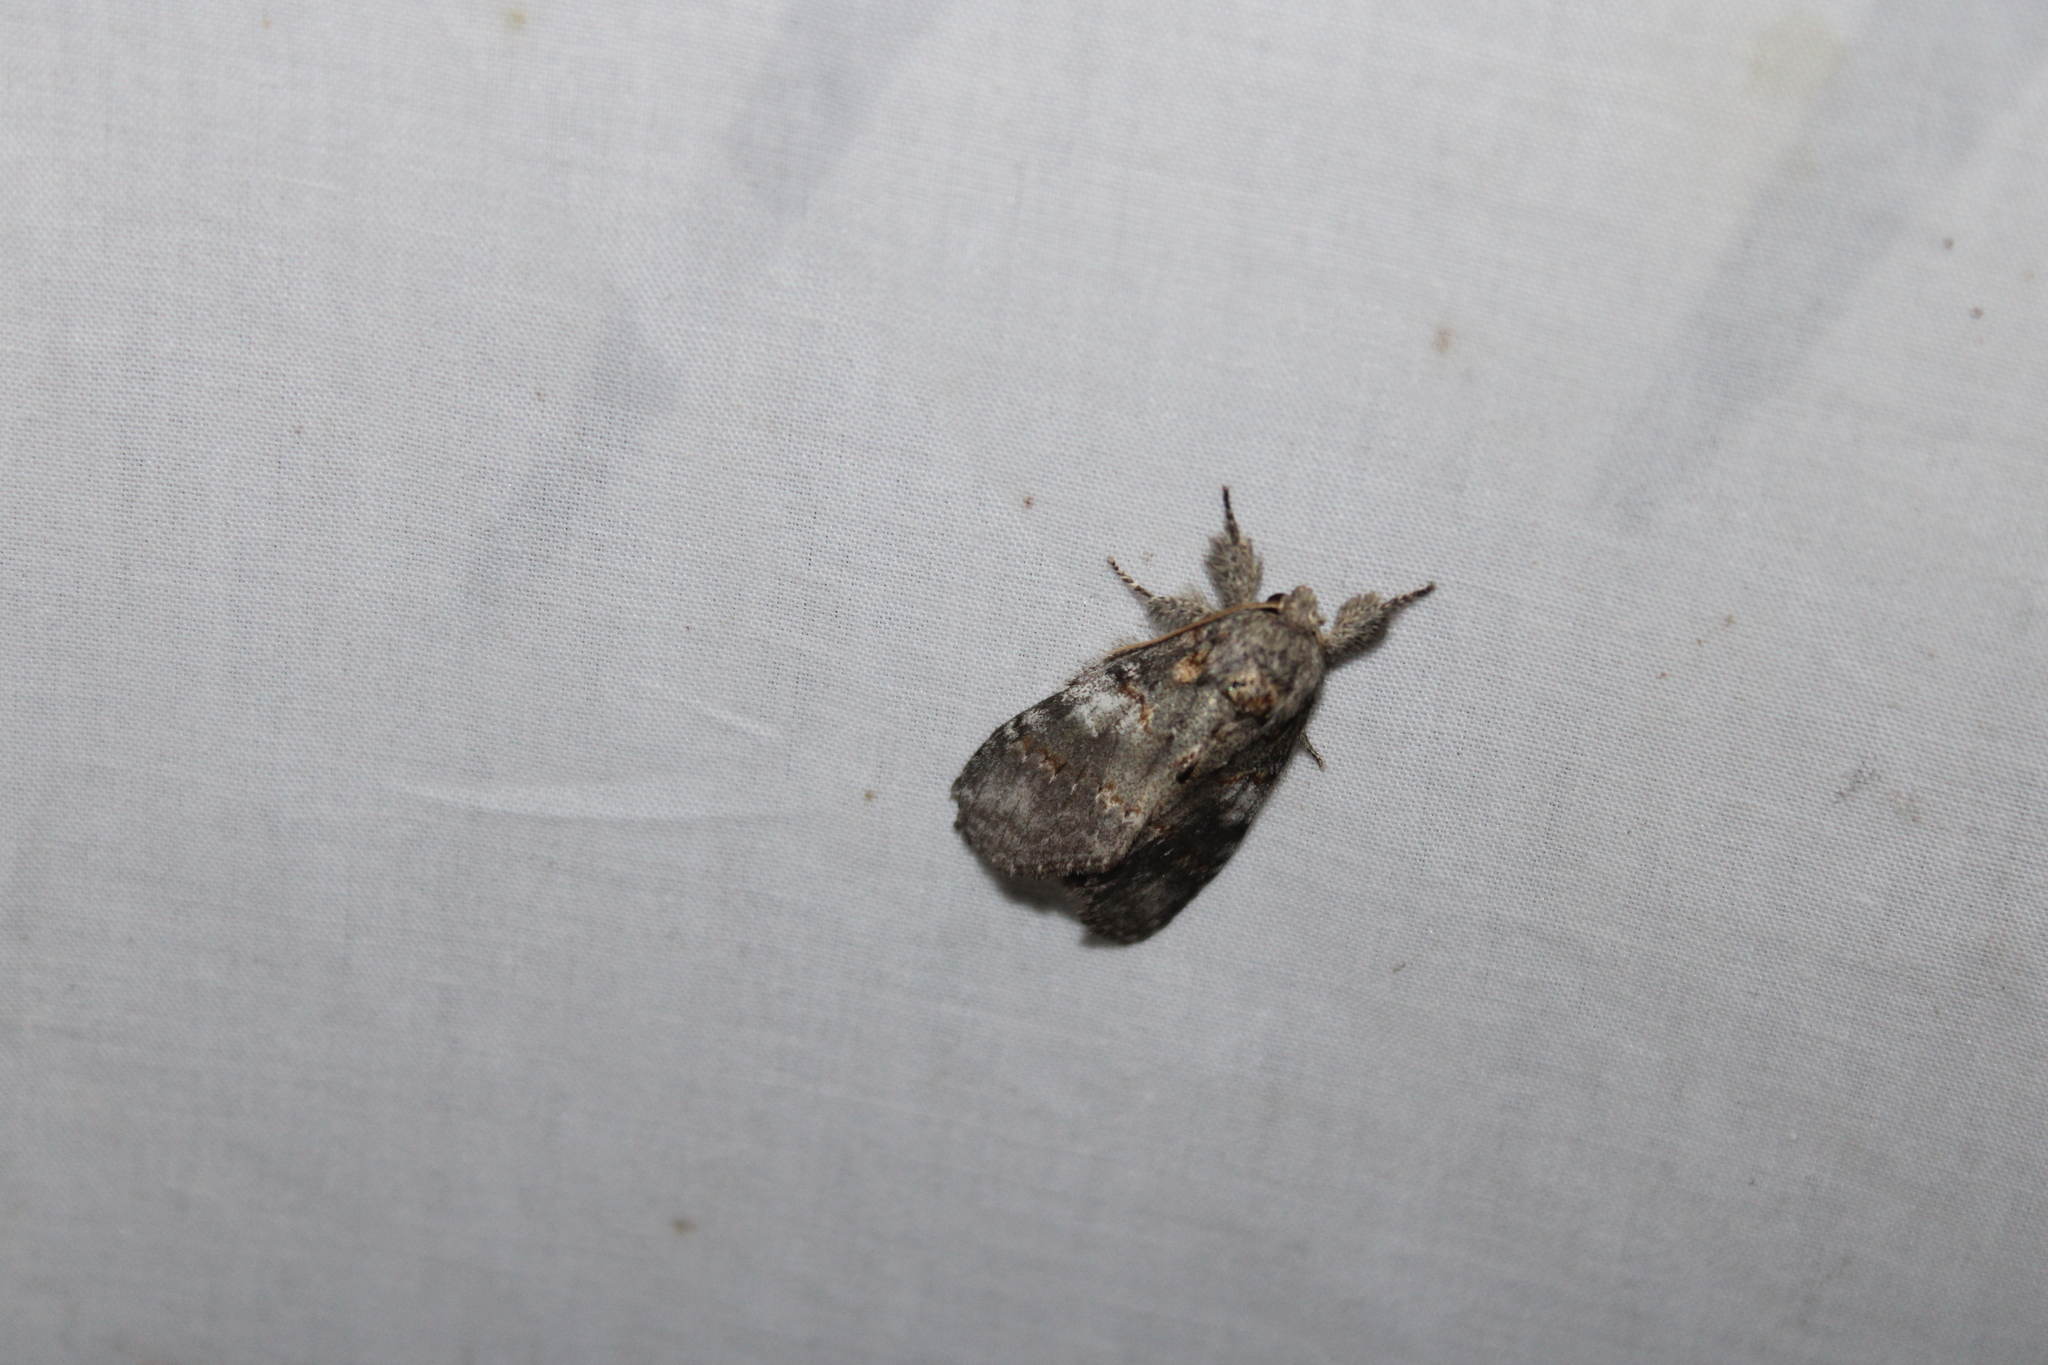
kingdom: Animalia
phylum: Arthropoda
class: Insecta
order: Lepidoptera
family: Notodontidae
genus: Peridea
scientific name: Peridea angulosa
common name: Angulose prominent
